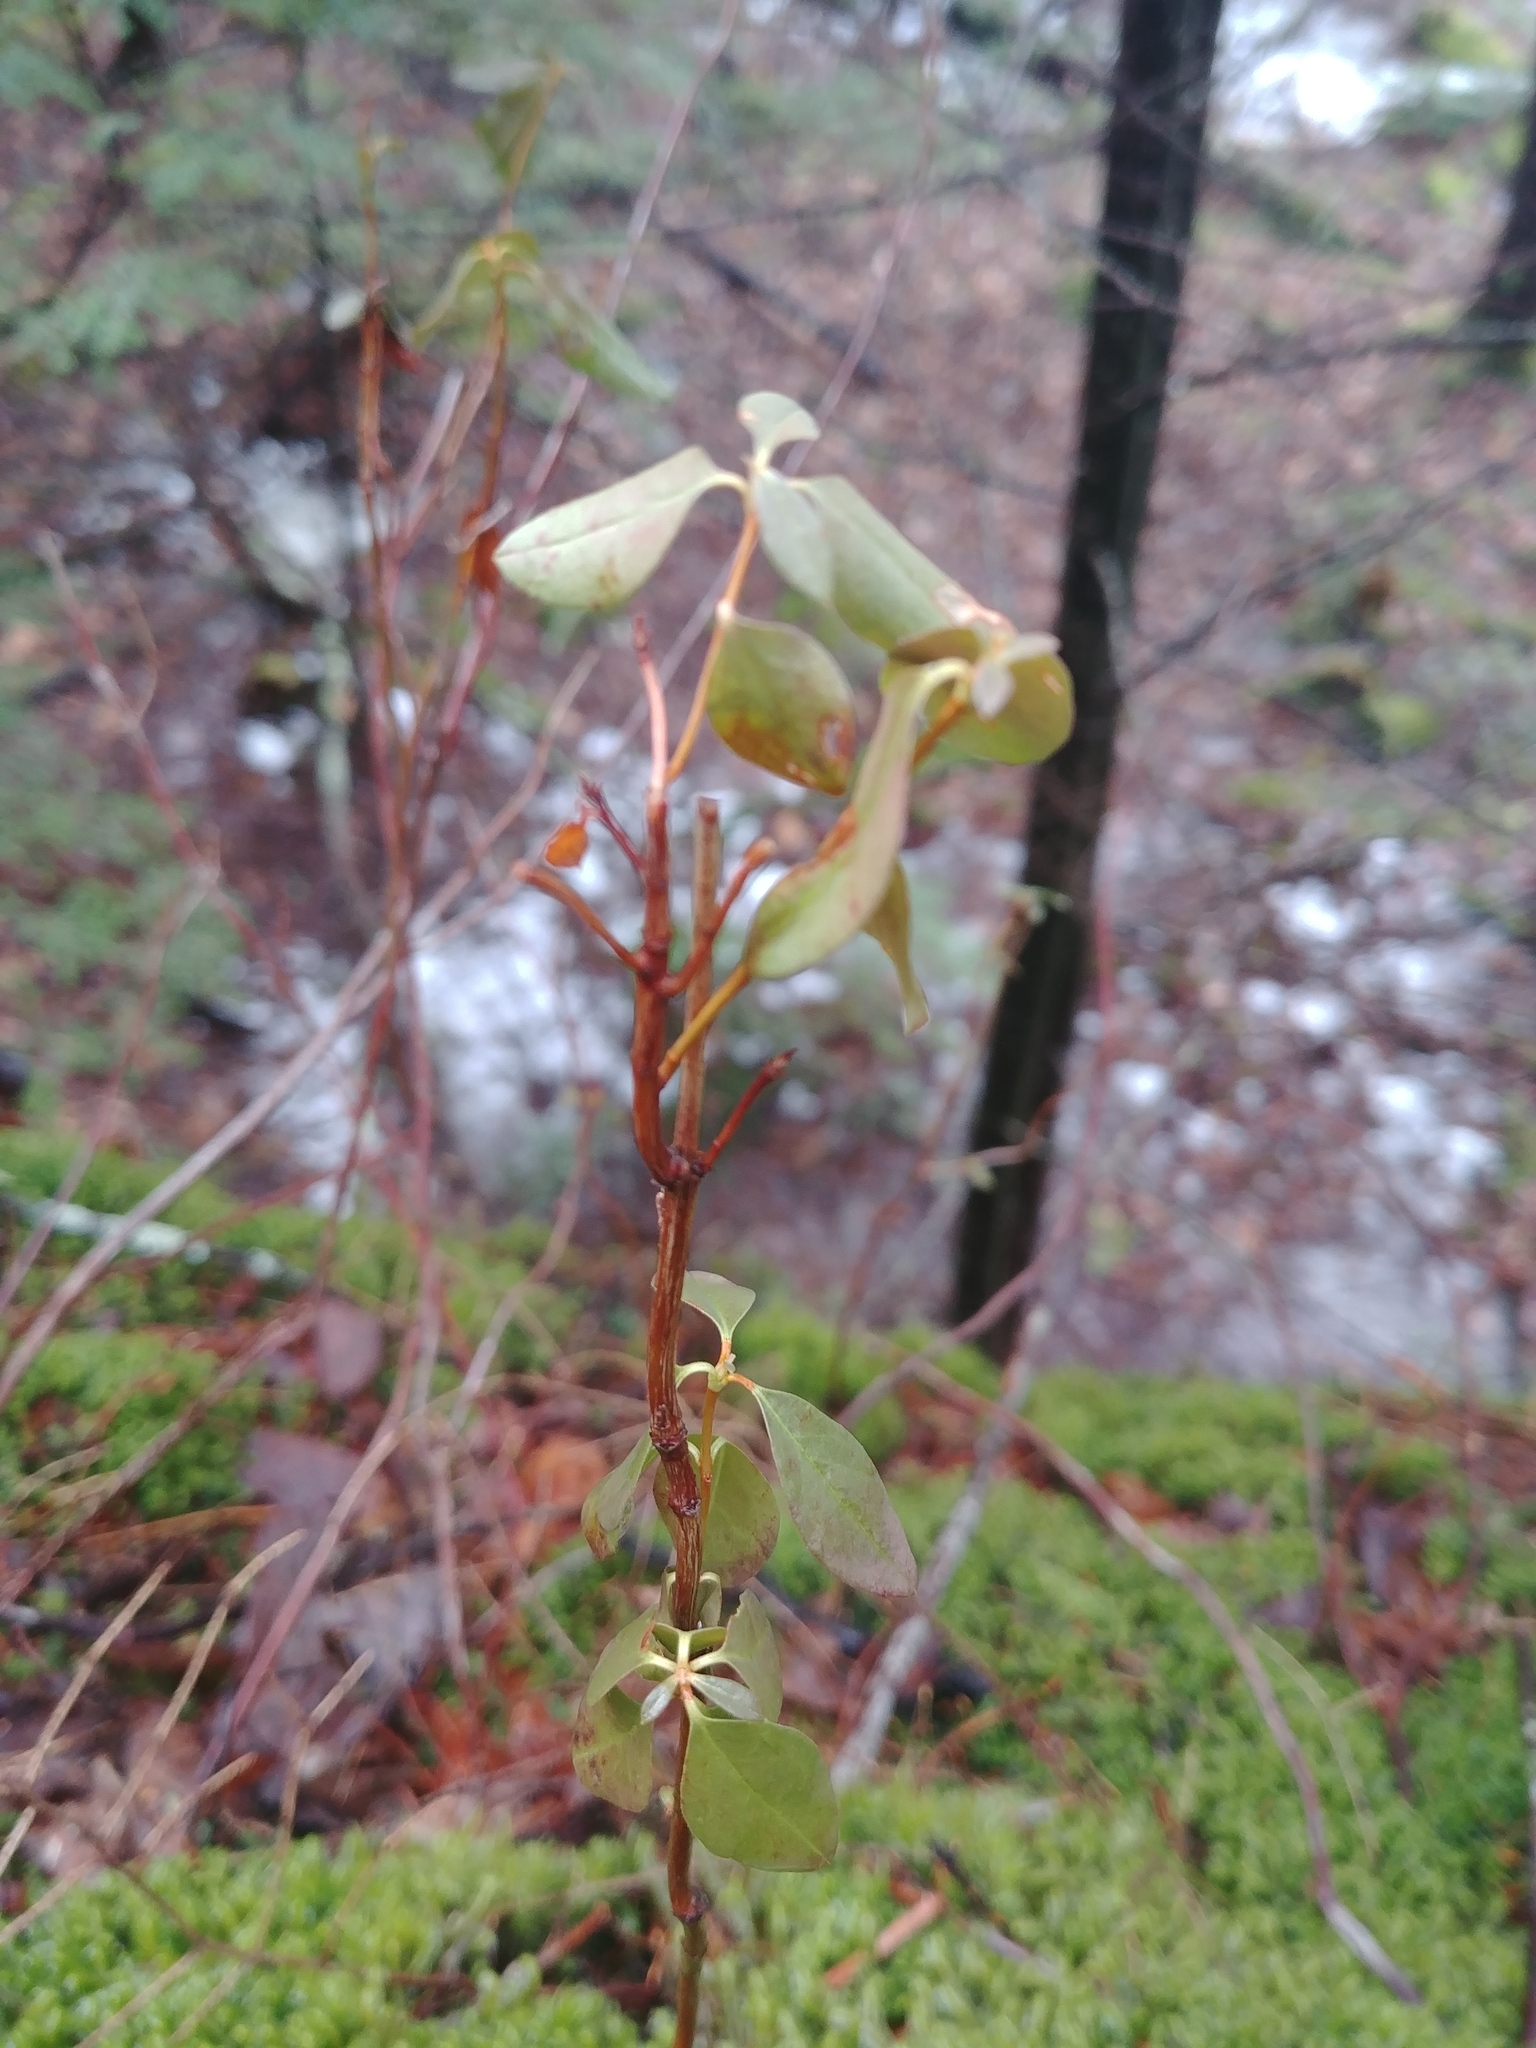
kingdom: Plantae
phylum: Tracheophyta
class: Magnoliopsida
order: Ericales
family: Ericaceae
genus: Kalmia
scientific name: Kalmia angustifolia
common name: Sheep-laurel
